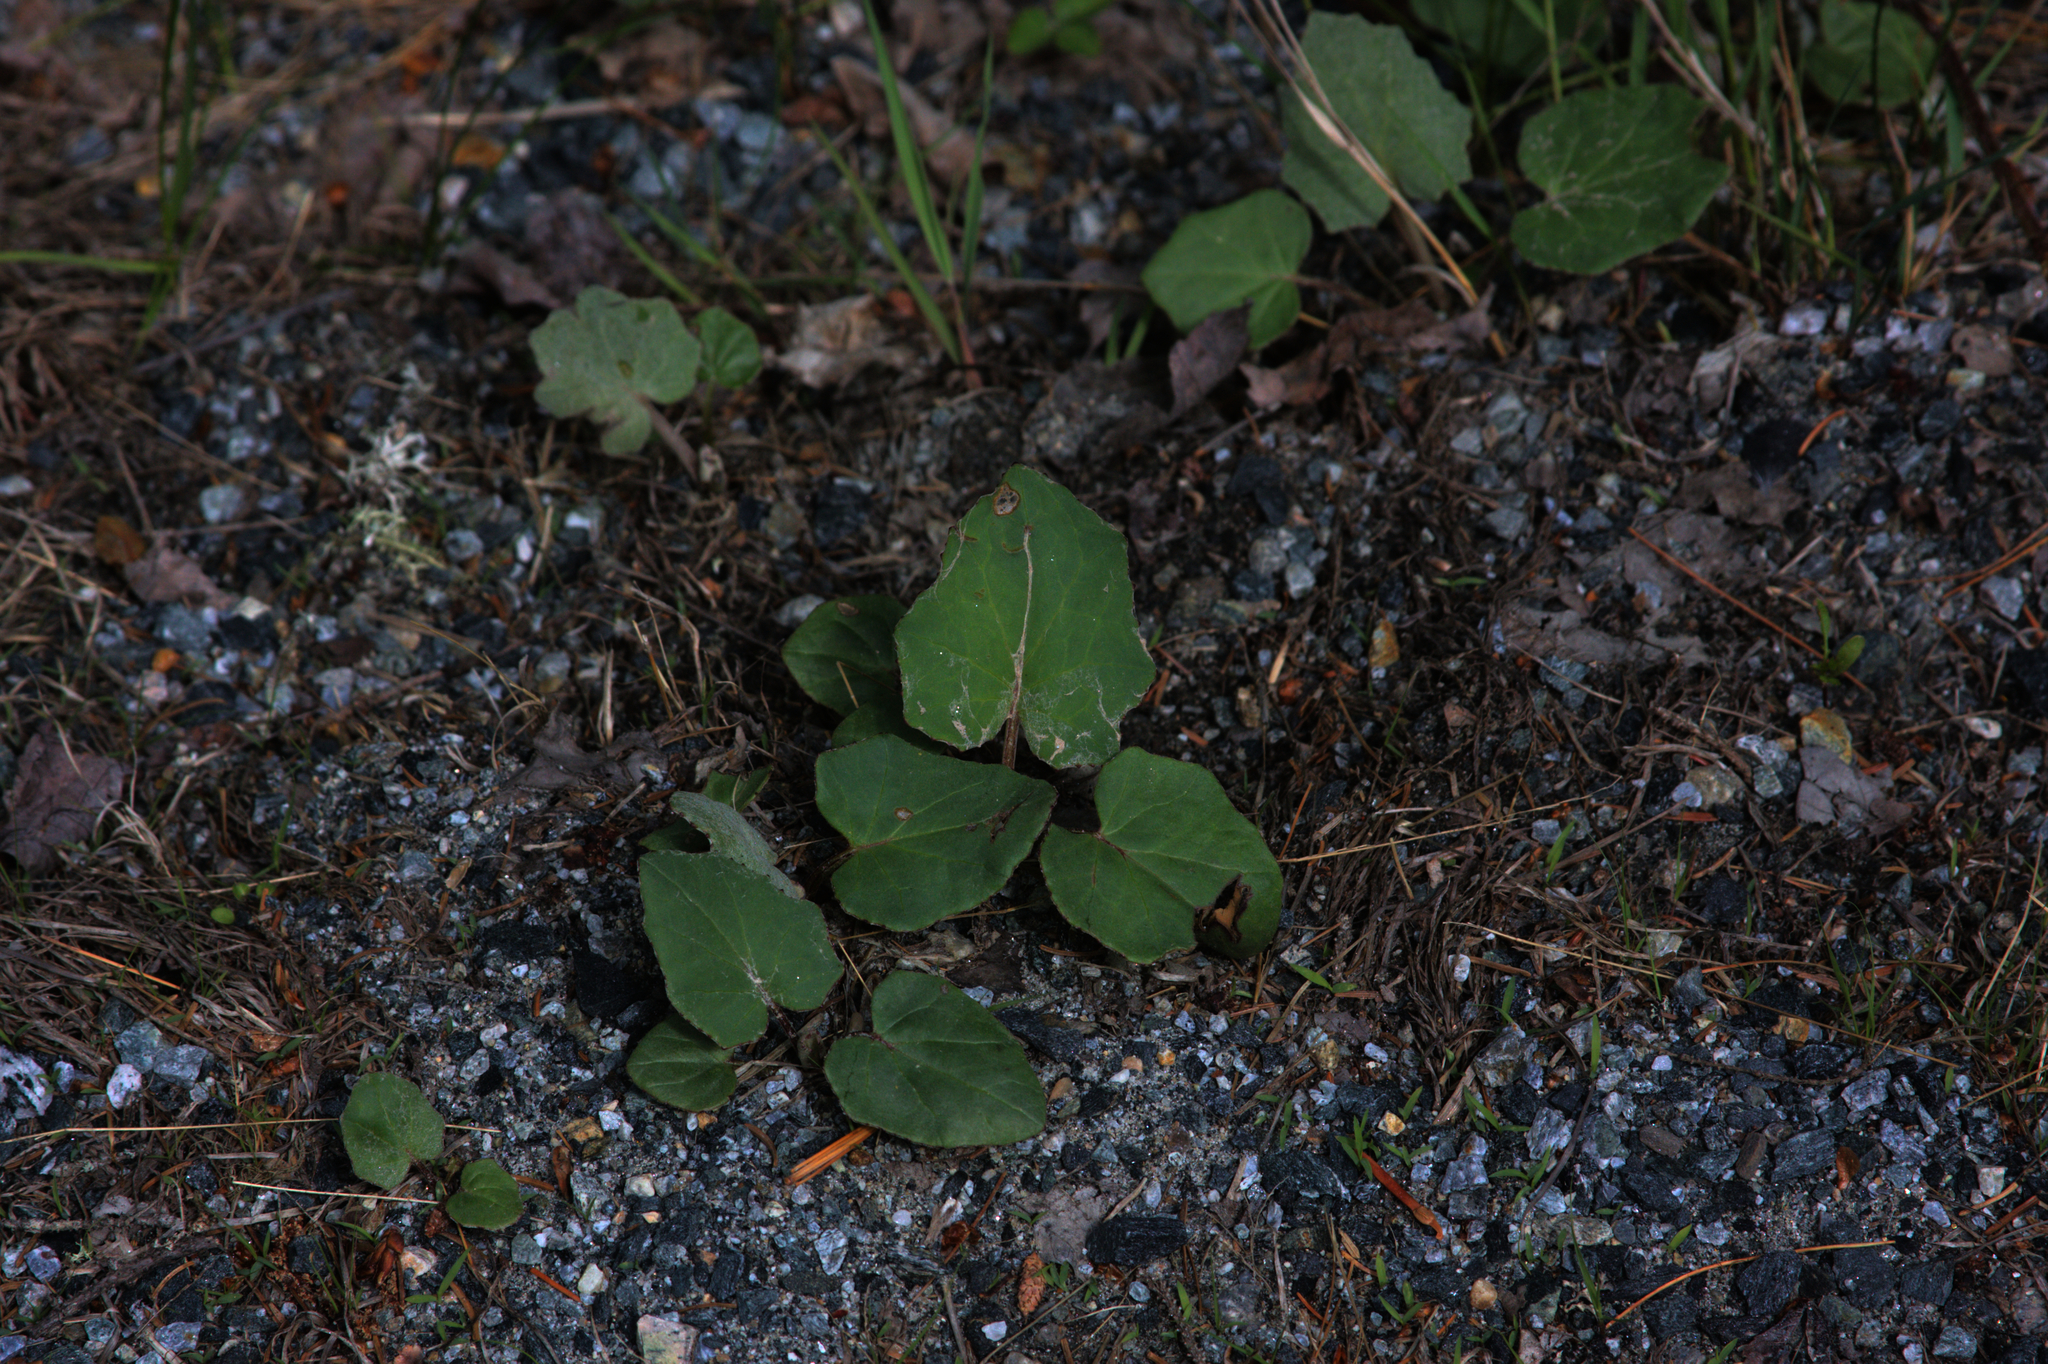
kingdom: Plantae
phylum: Tracheophyta
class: Magnoliopsida
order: Asterales
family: Asteraceae
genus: Tussilago
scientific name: Tussilago farfara
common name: Coltsfoot
